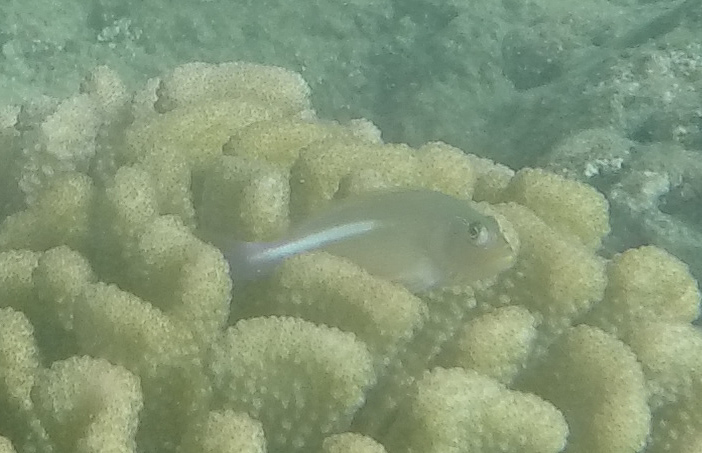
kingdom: Animalia
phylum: Chordata
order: Perciformes
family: Cirrhitidae
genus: Paracirrhites
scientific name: Paracirrhites arcatus
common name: Arc-eye hawkfish
